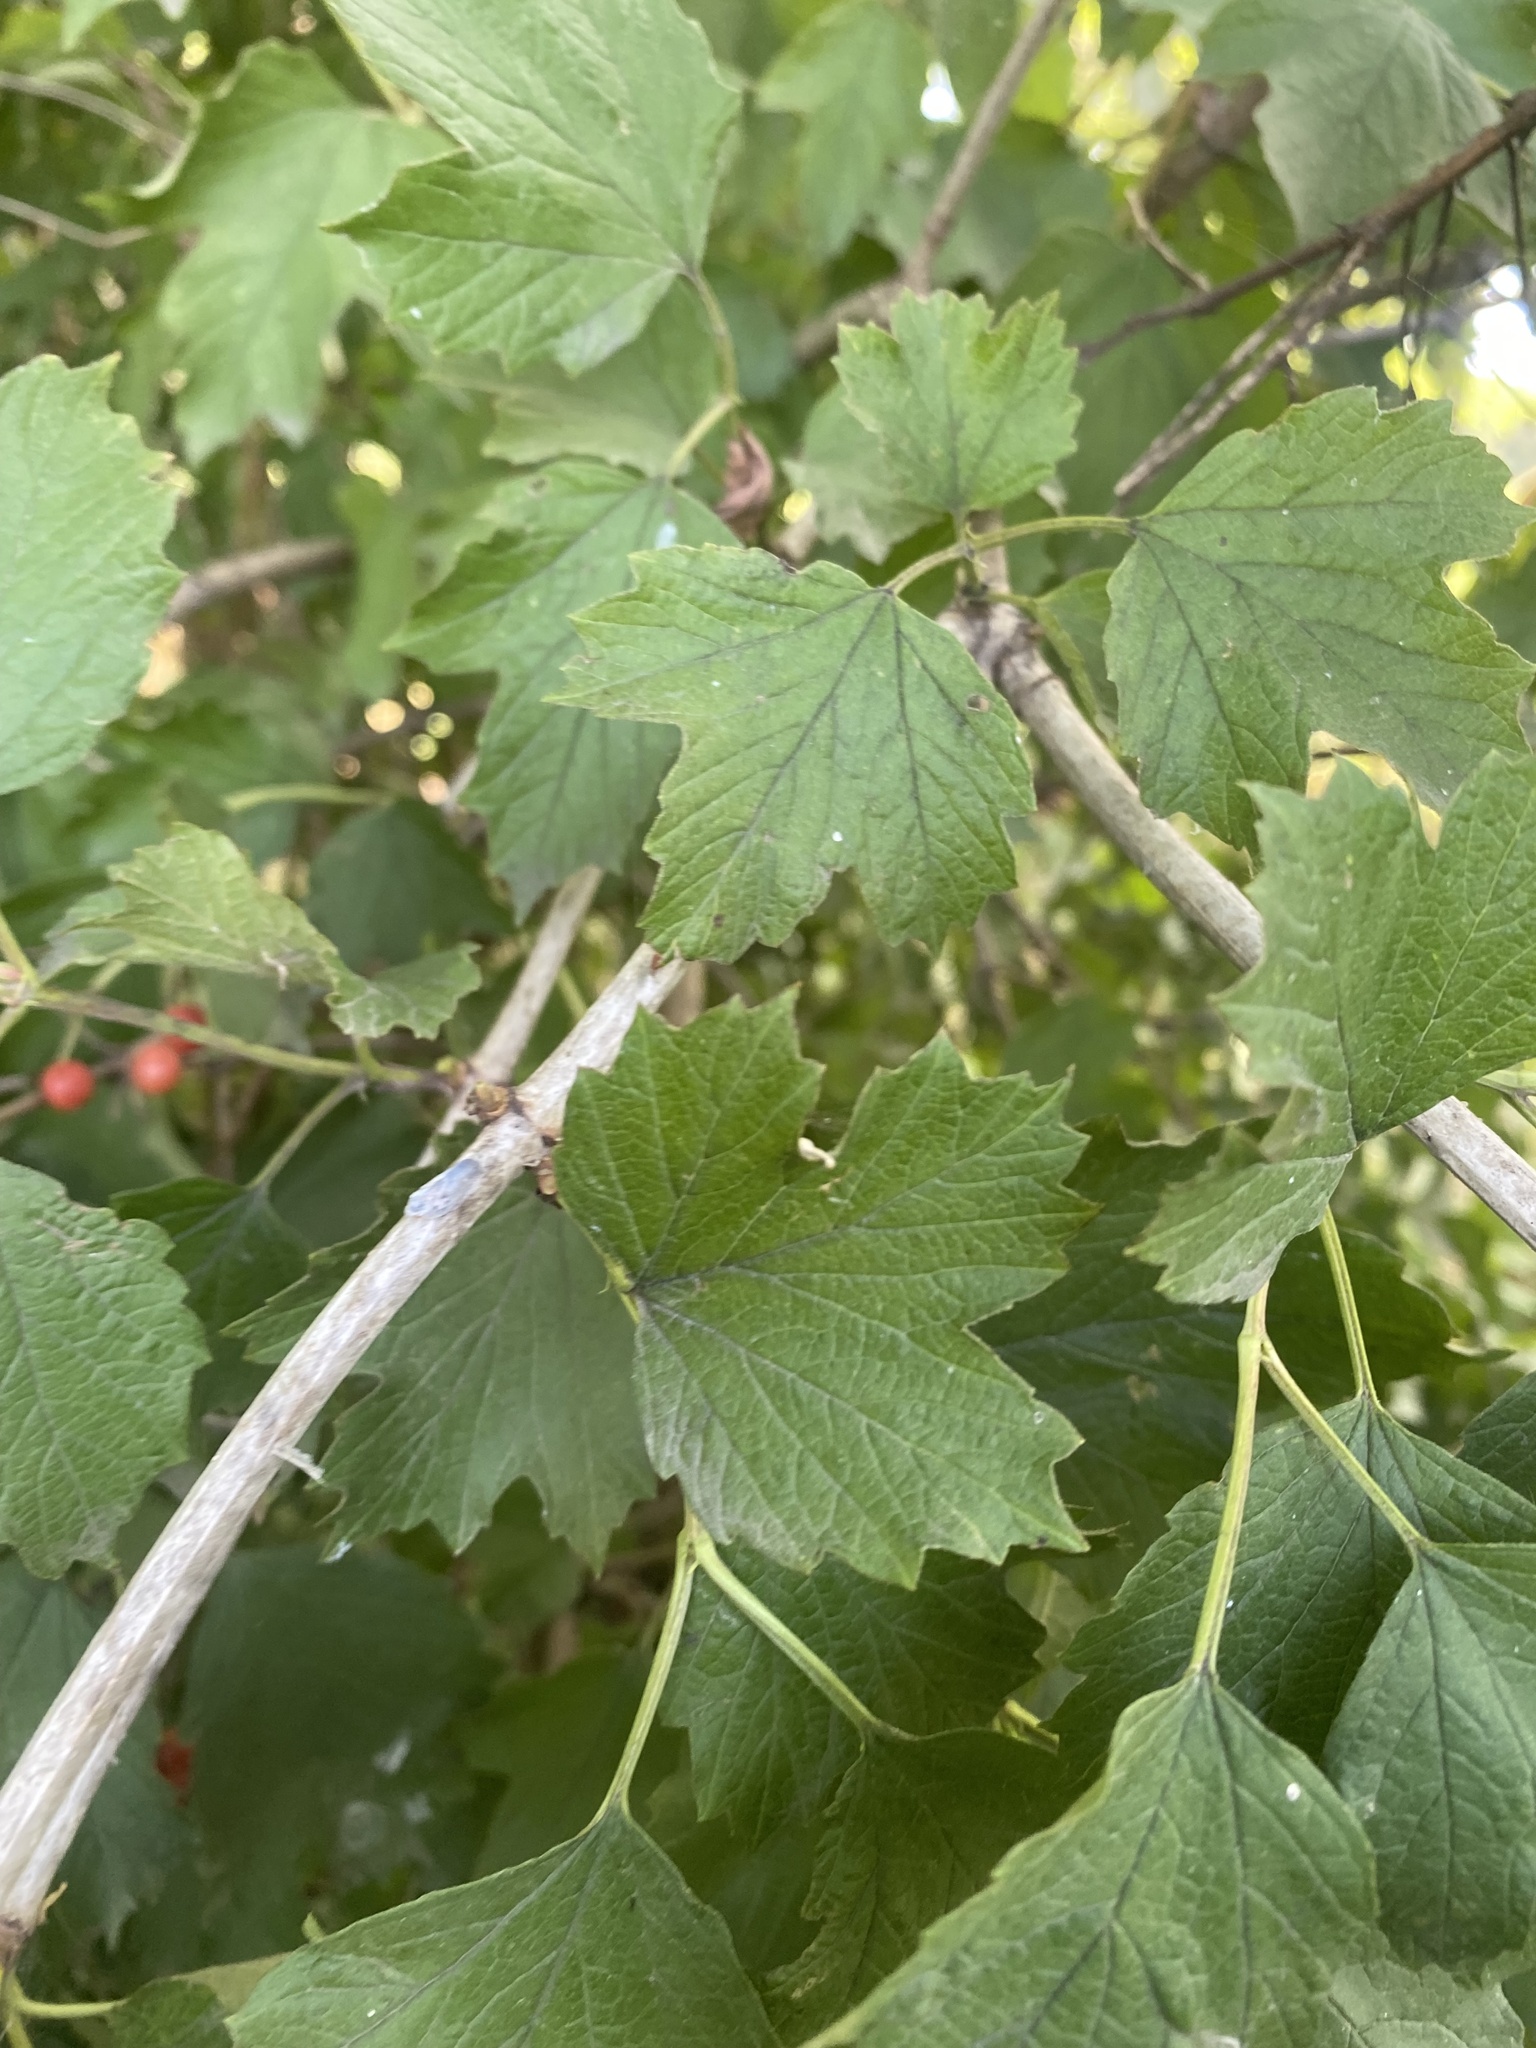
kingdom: Plantae
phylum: Tracheophyta
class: Magnoliopsida
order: Dipsacales
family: Viburnaceae
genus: Viburnum
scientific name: Viburnum opulus
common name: Guelder-rose
